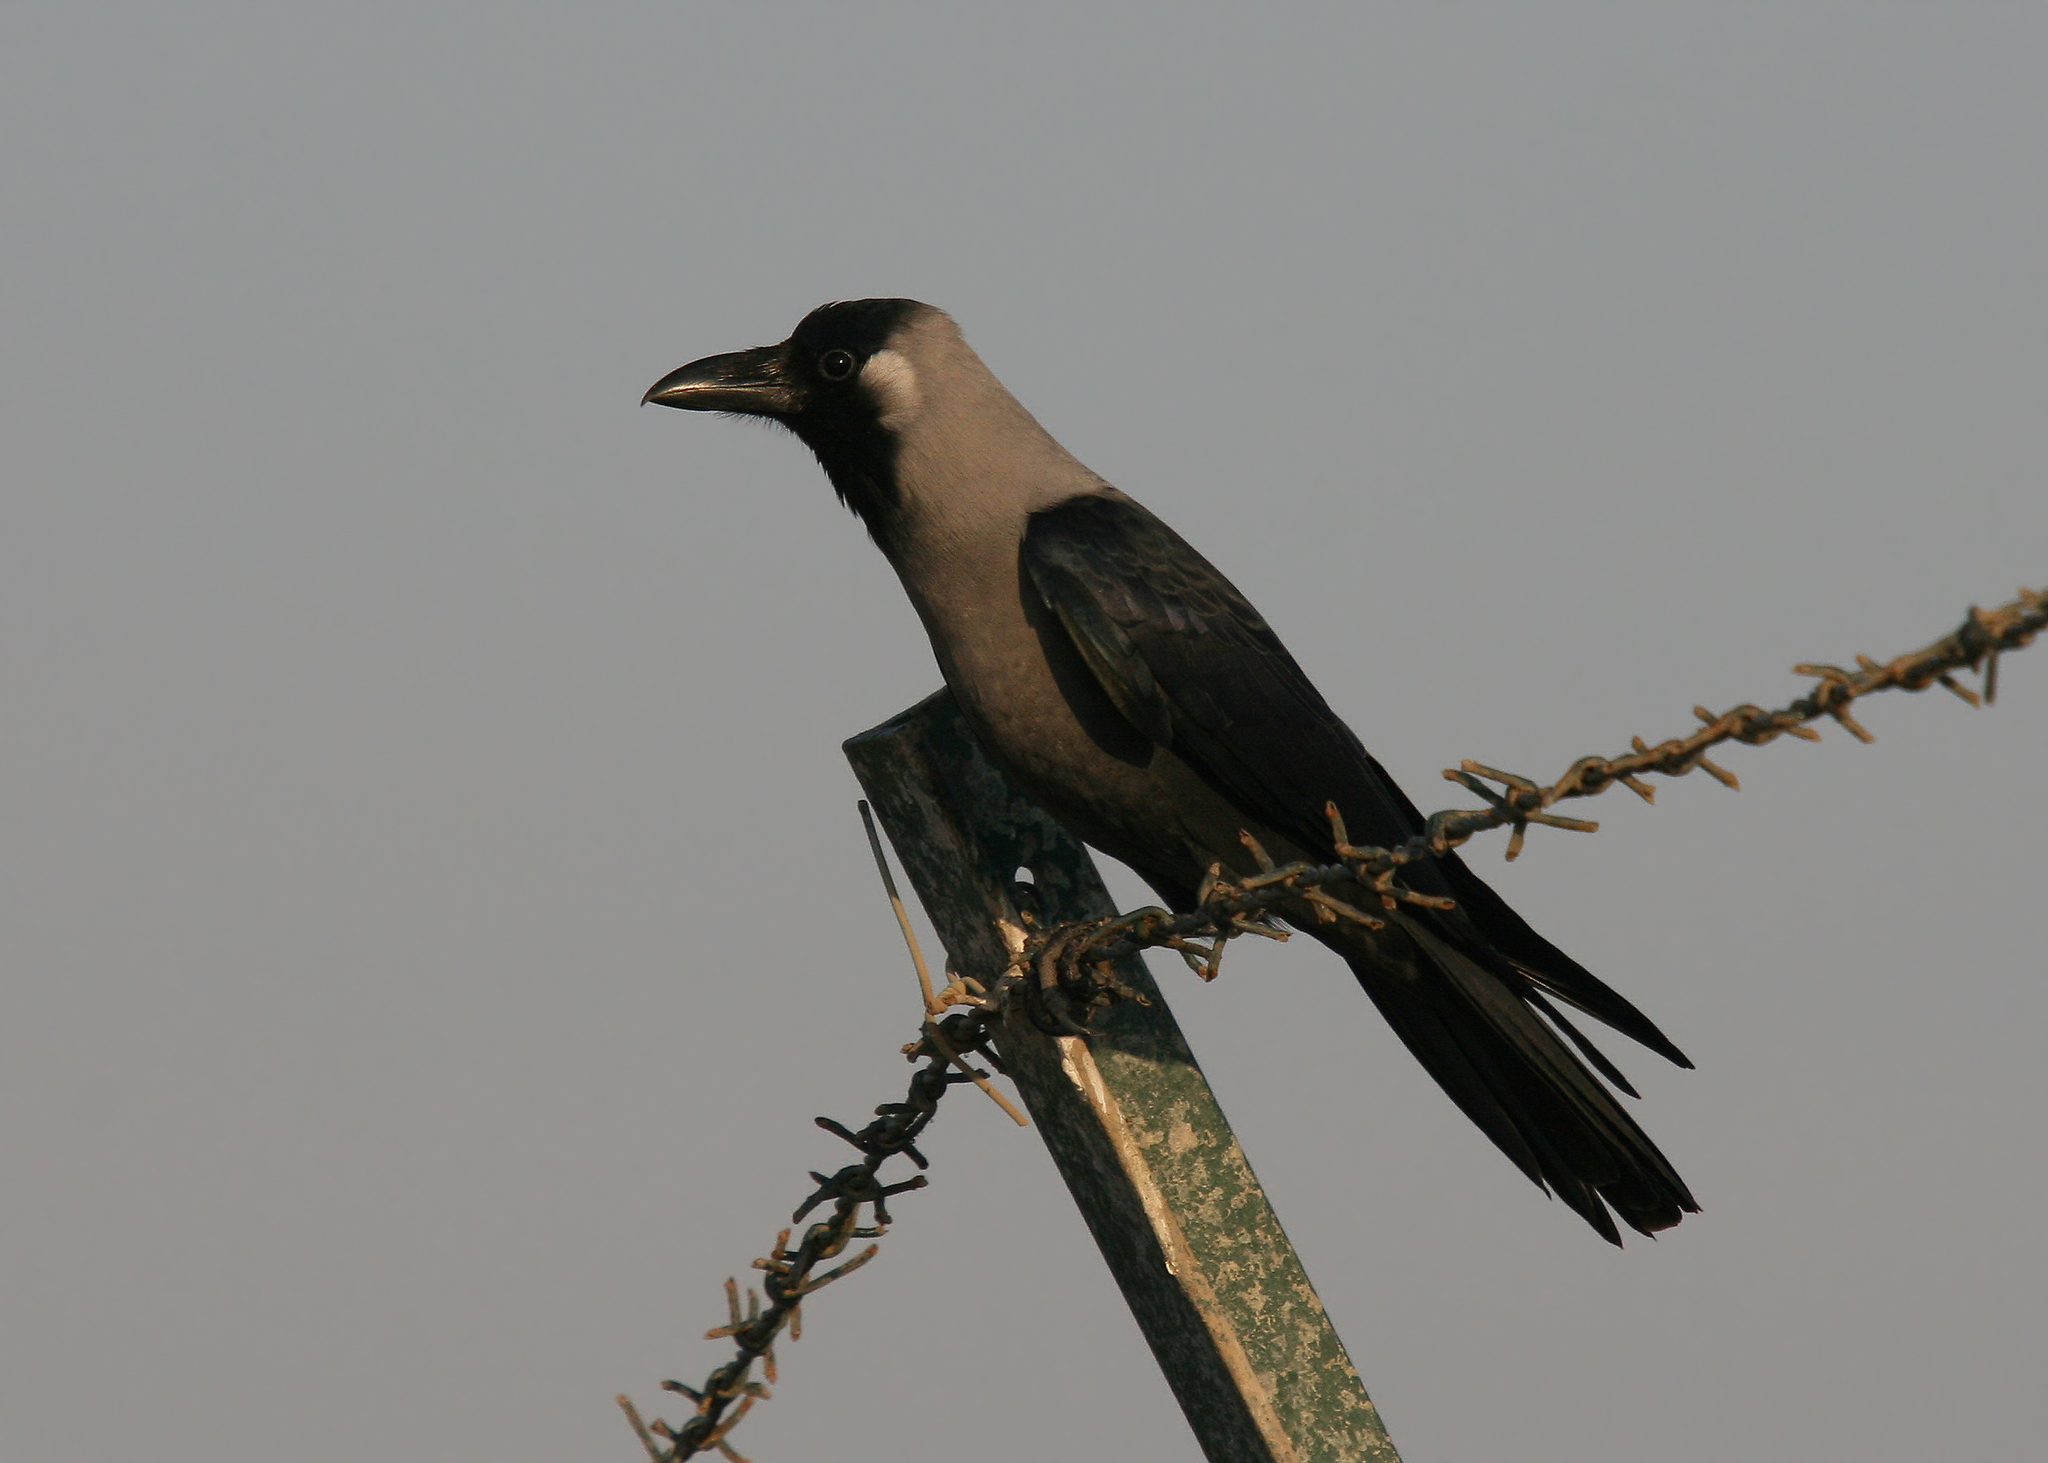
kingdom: Animalia
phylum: Chordata
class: Aves
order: Passeriformes
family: Corvidae
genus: Corvus
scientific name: Corvus splendens
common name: House crow
